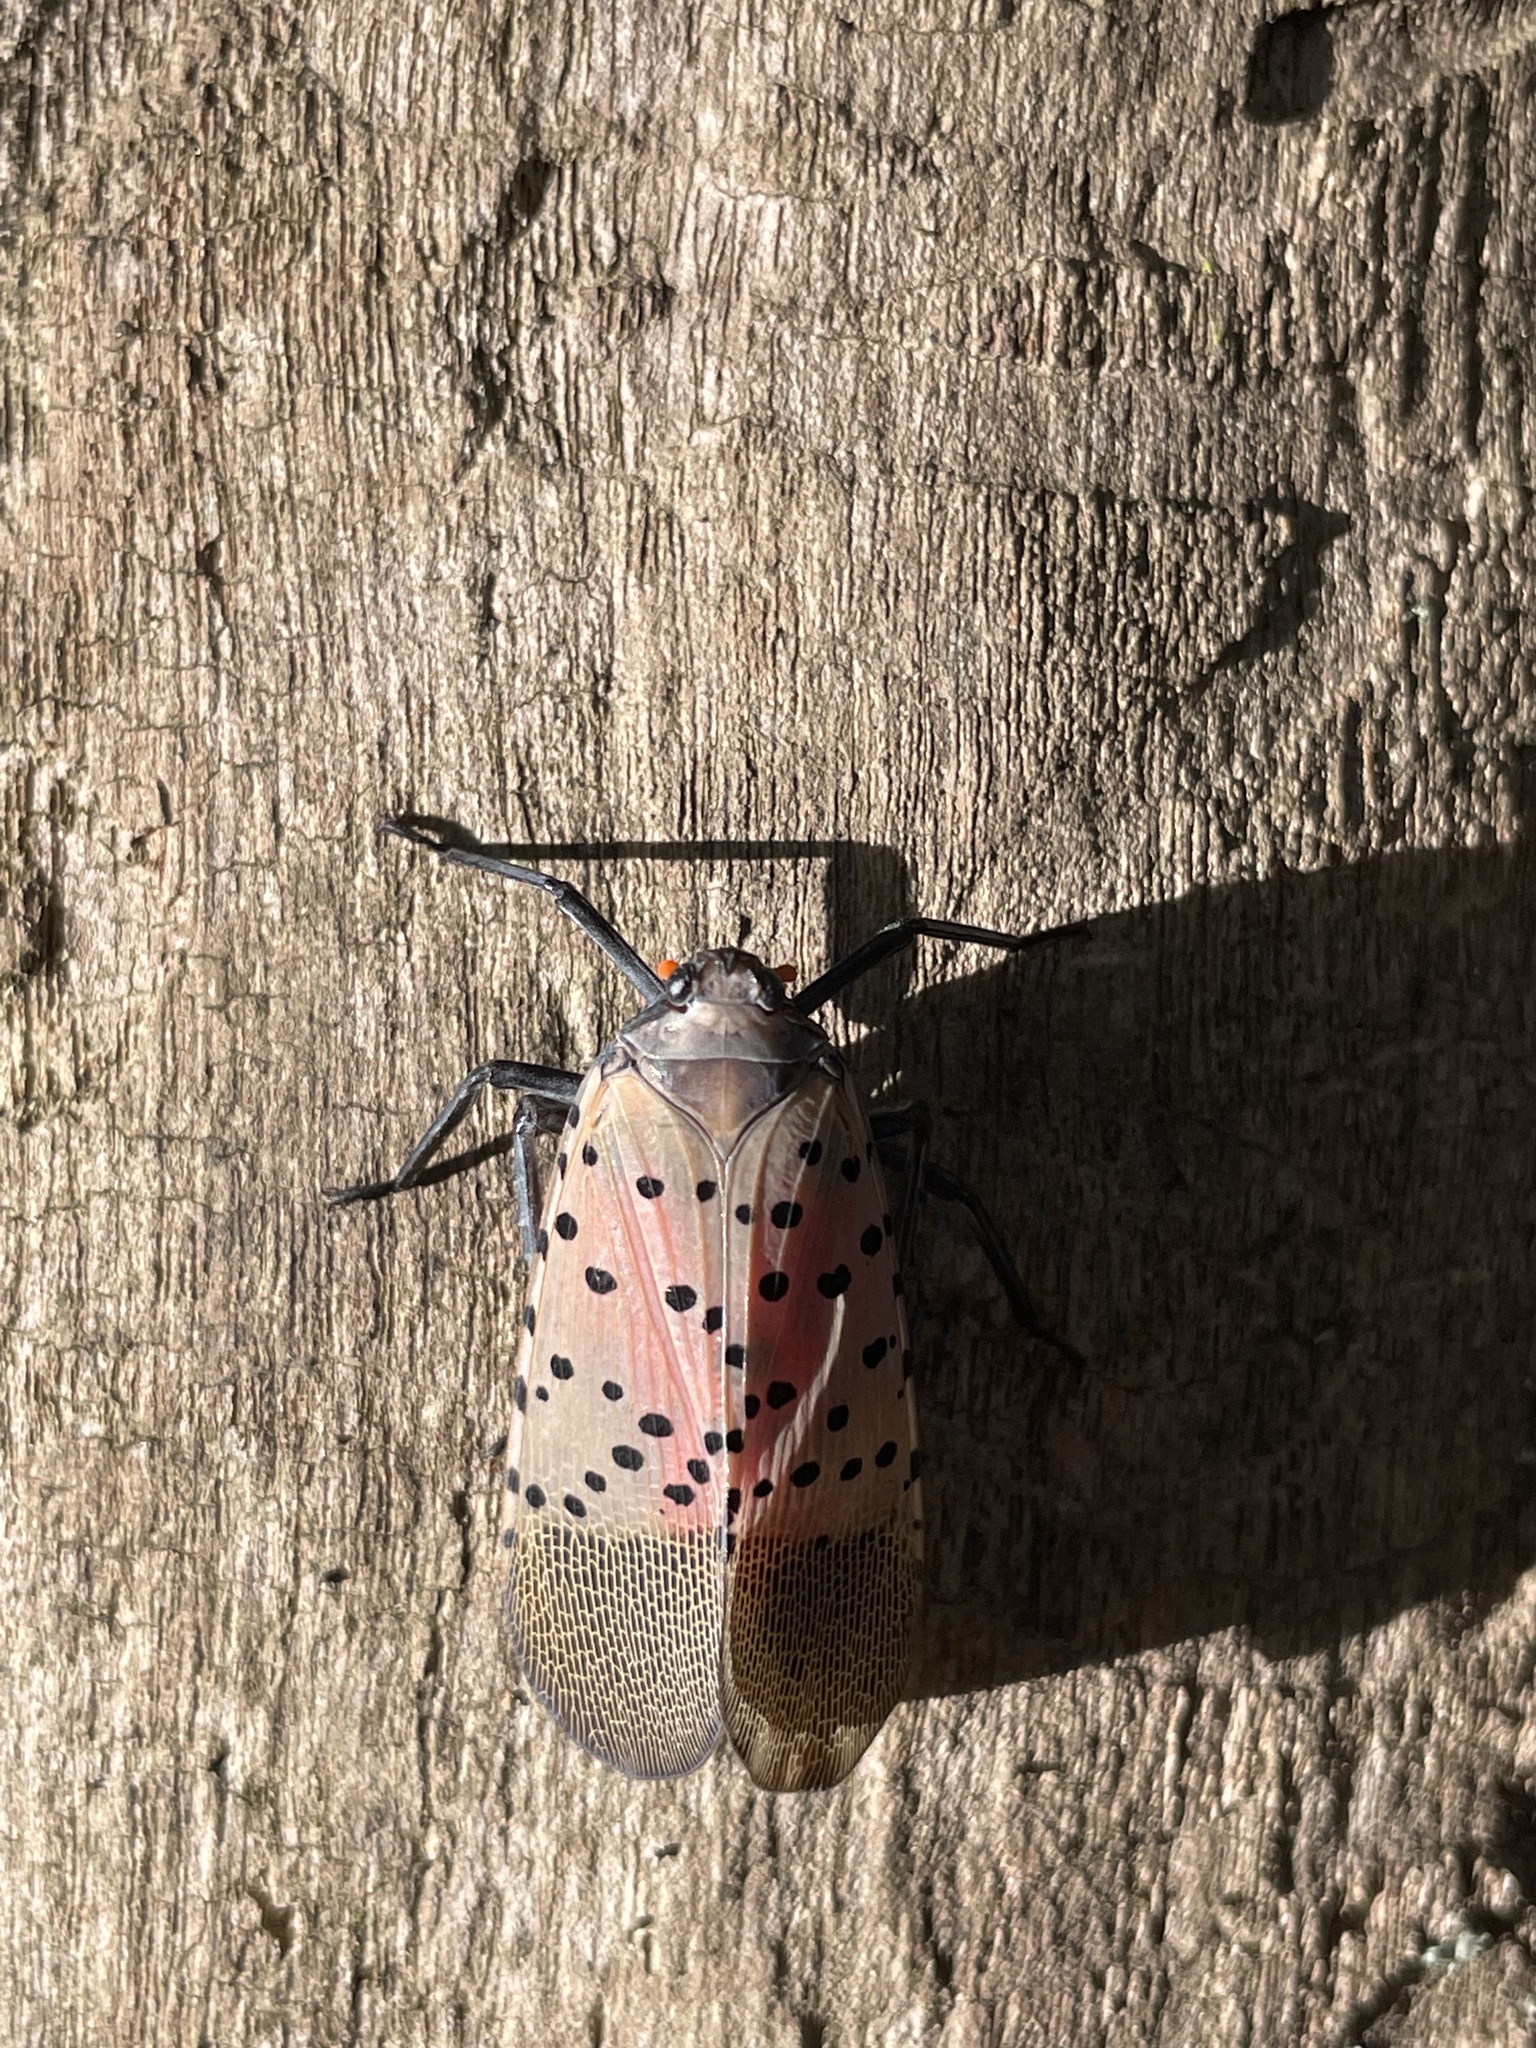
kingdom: Animalia
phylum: Arthropoda
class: Insecta
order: Hemiptera
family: Fulgoridae
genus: Lycorma
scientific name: Lycorma delicatula
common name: Spotted lanternfly
